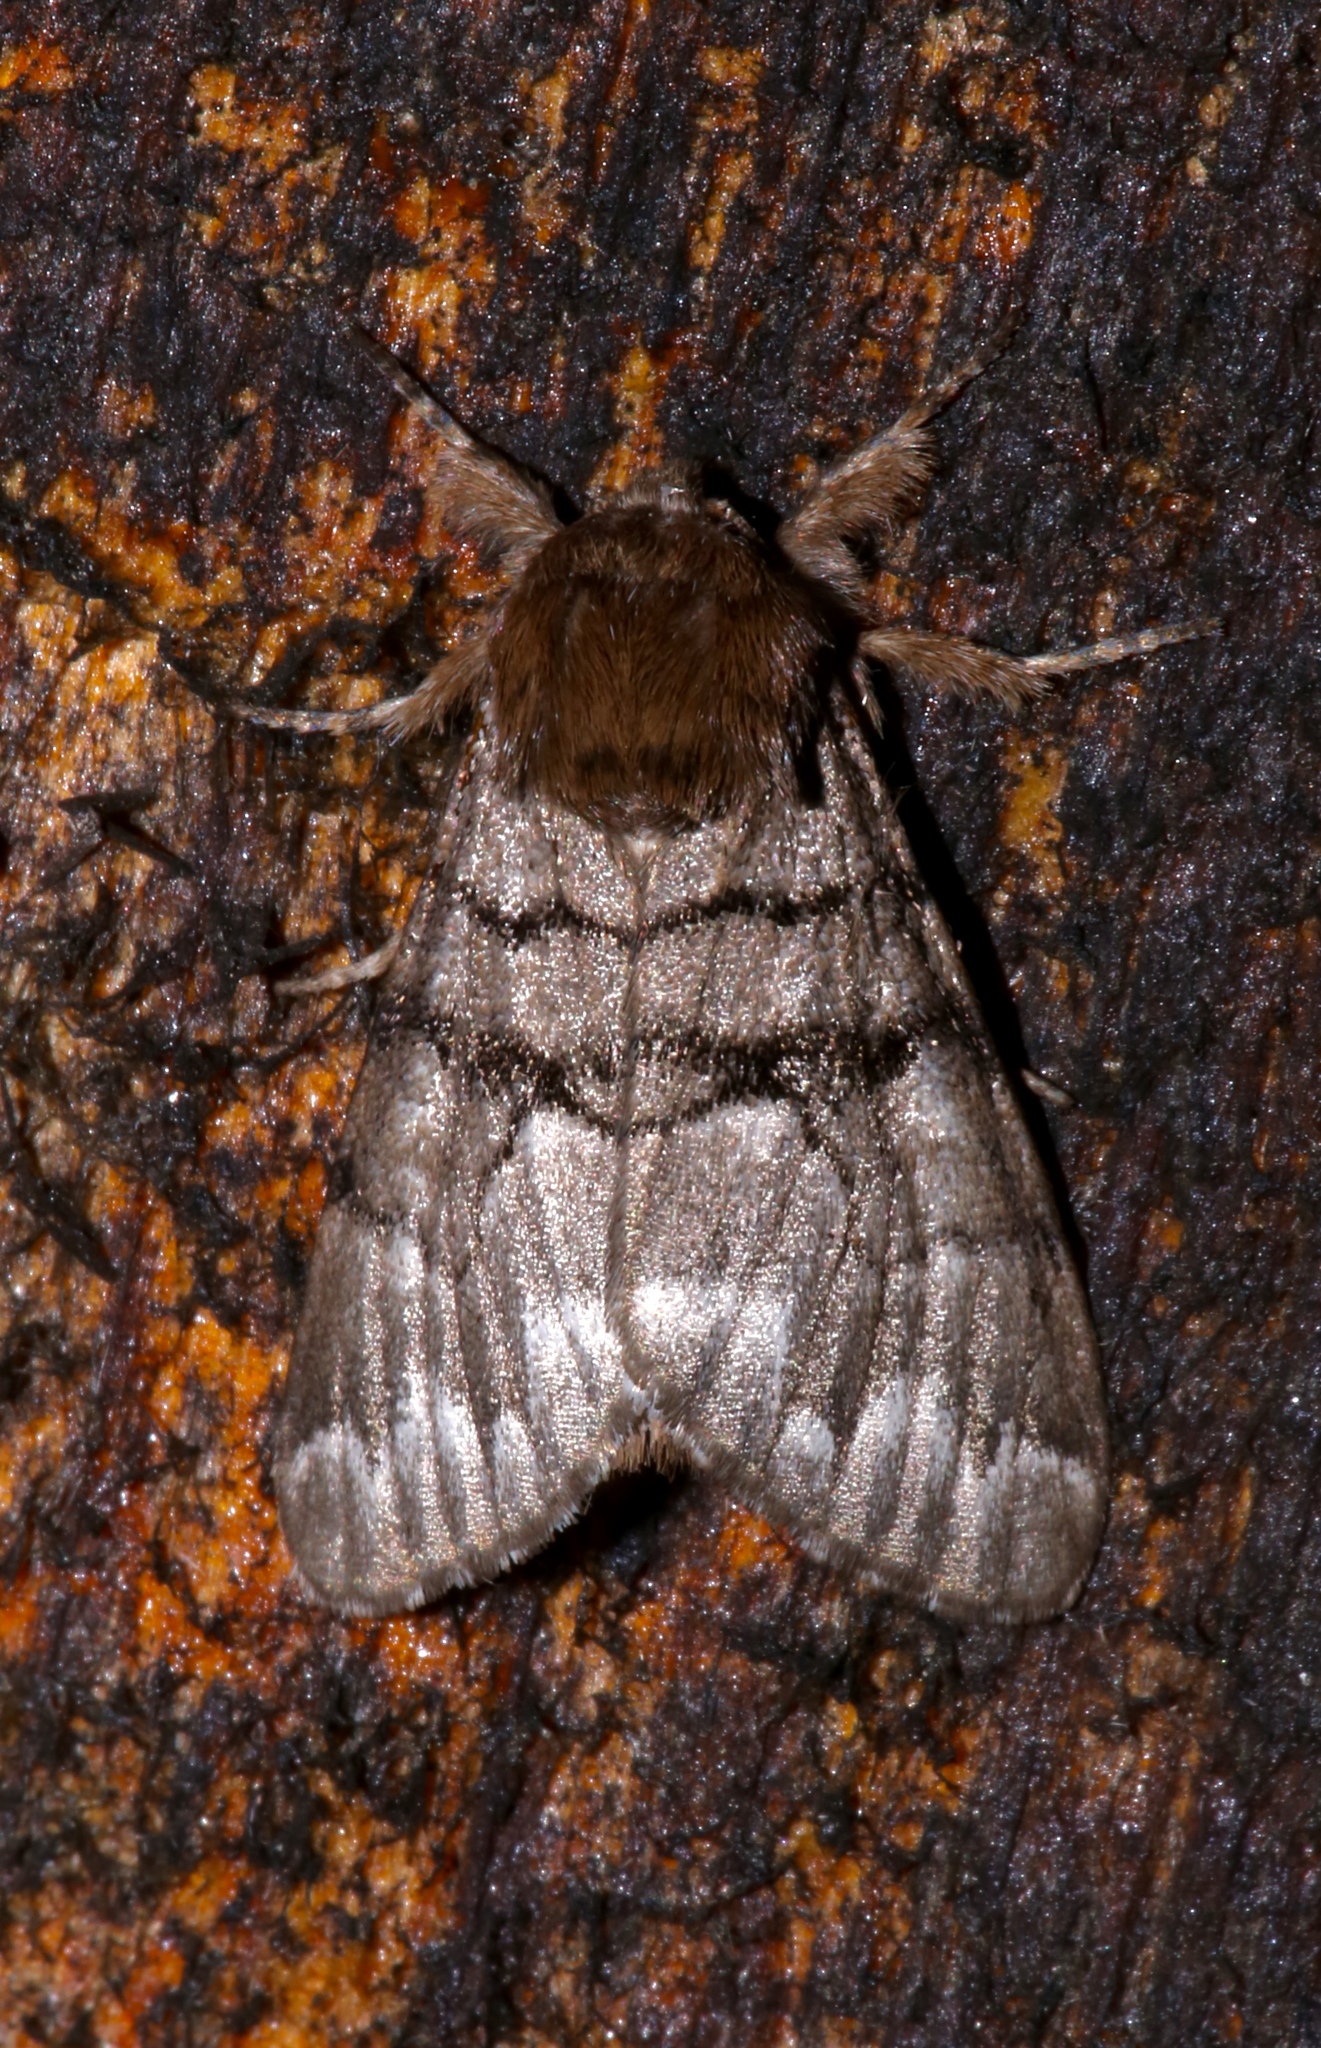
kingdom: Animalia
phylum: Arthropoda
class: Insecta
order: Lepidoptera
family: Noctuidae
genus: Panthea
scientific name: Panthea furcilla
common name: Eastern panthea moth
